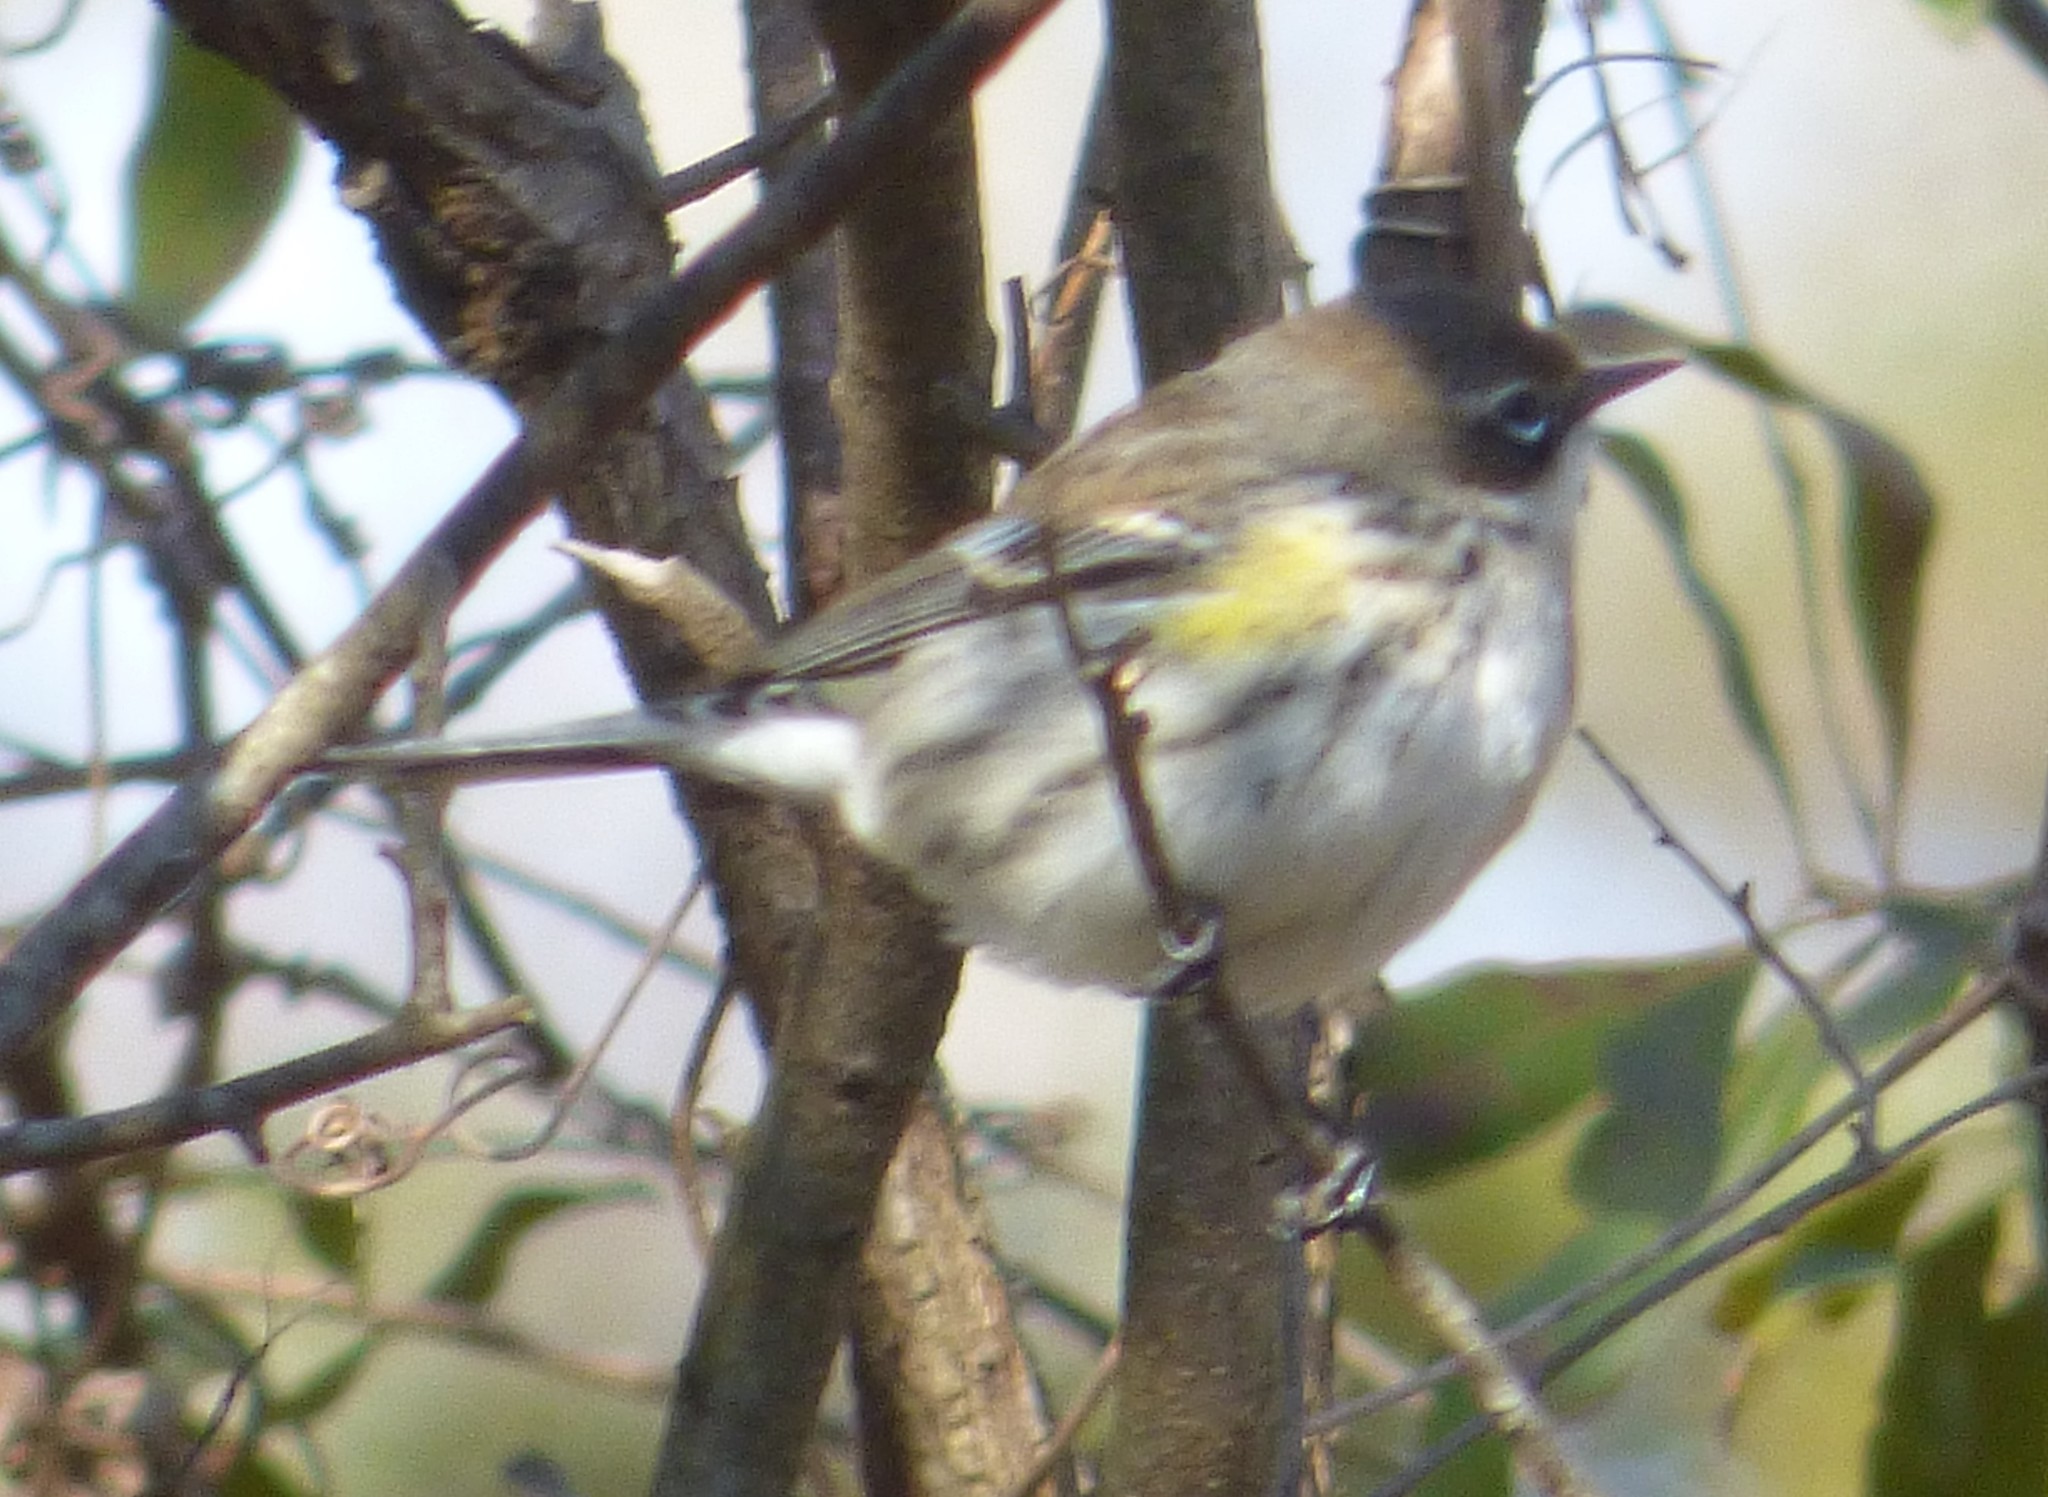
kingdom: Animalia
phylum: Chordata
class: Aves
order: Passeriformes
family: Parulidae
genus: Setophaga
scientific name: Setophaga coronata
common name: Myrtle warbler
